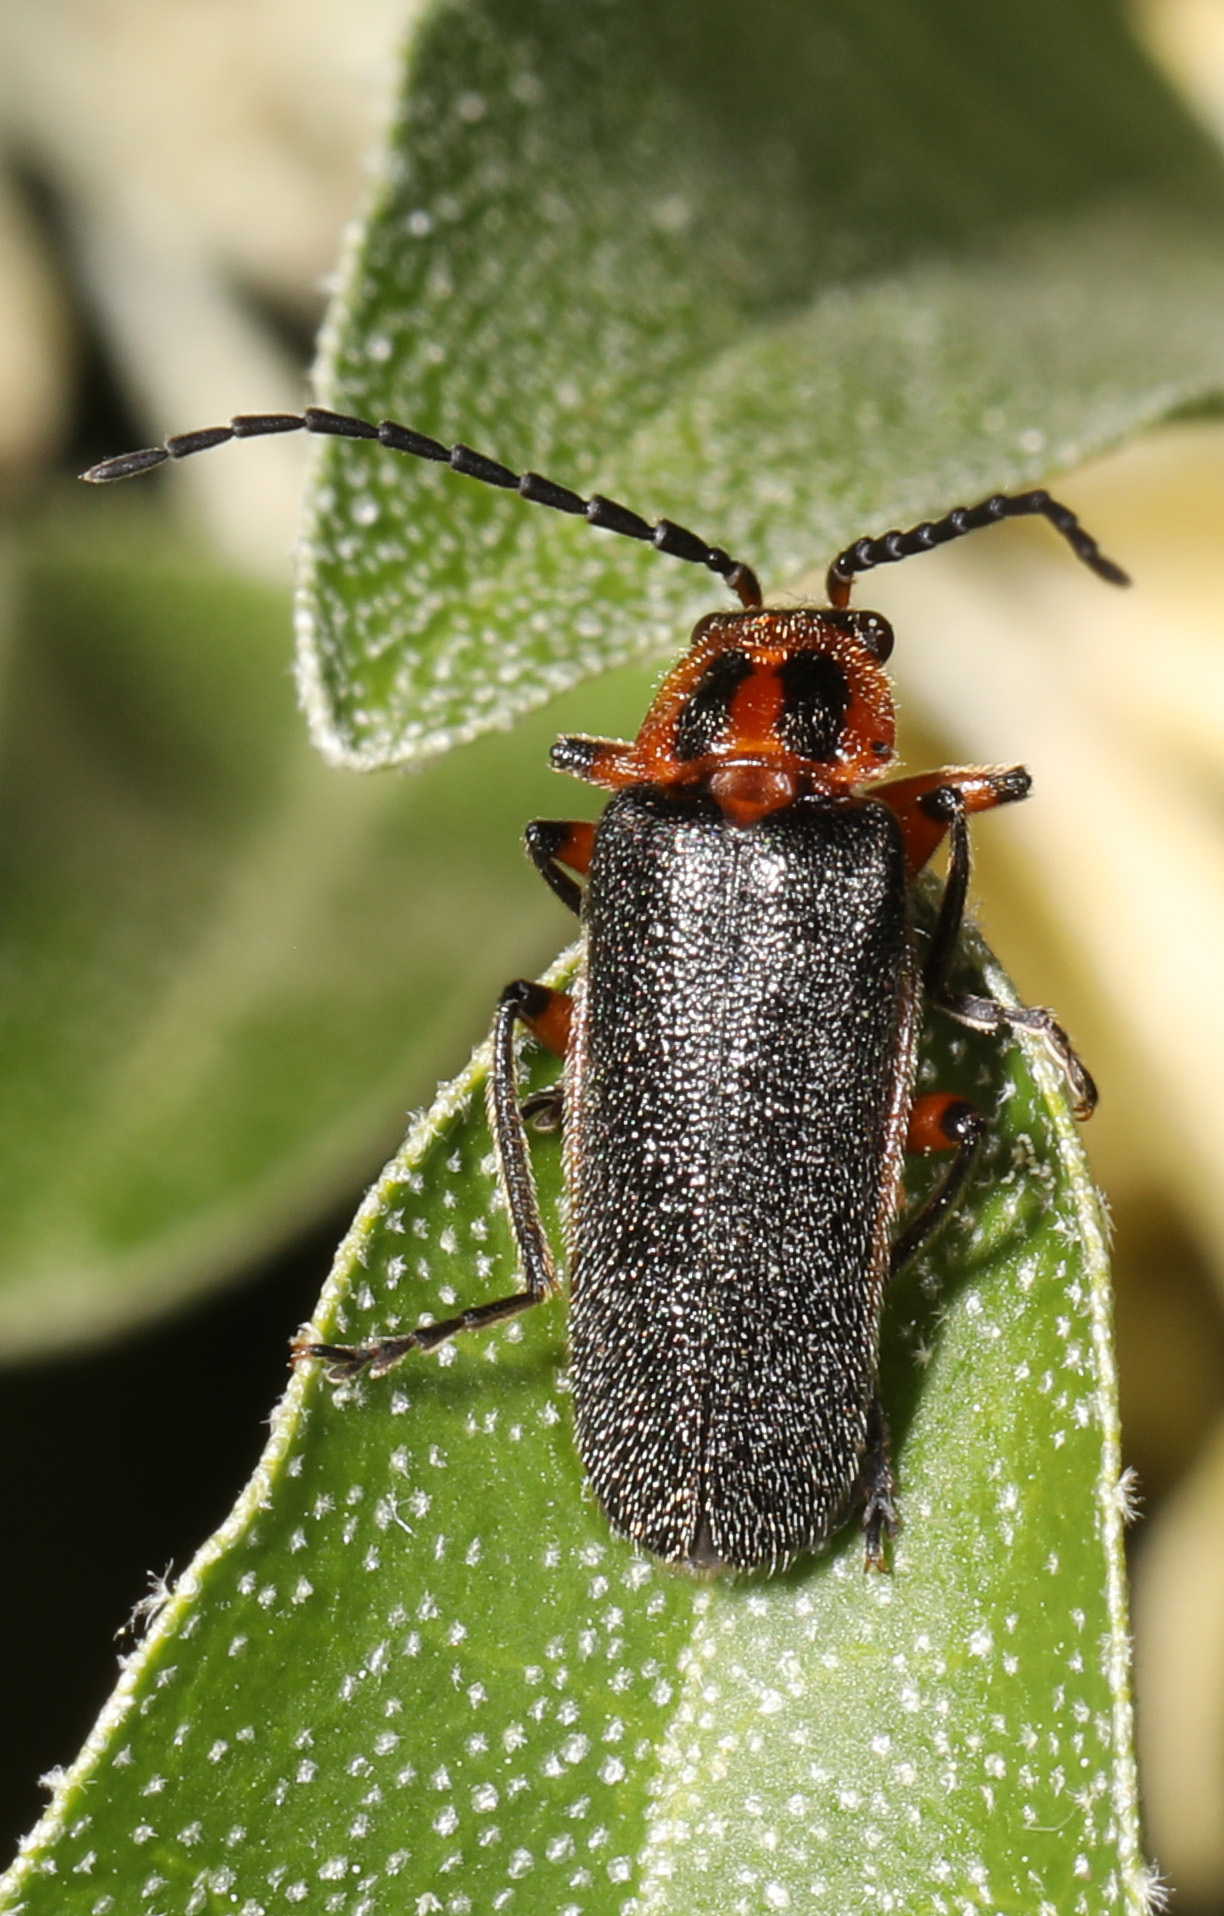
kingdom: Animalia
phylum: Arthropoda
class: Insecta
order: Coleoptera
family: Cantharidae
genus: Atalantycha
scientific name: Atalantycha bilineata
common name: Two-lined leatherwing
